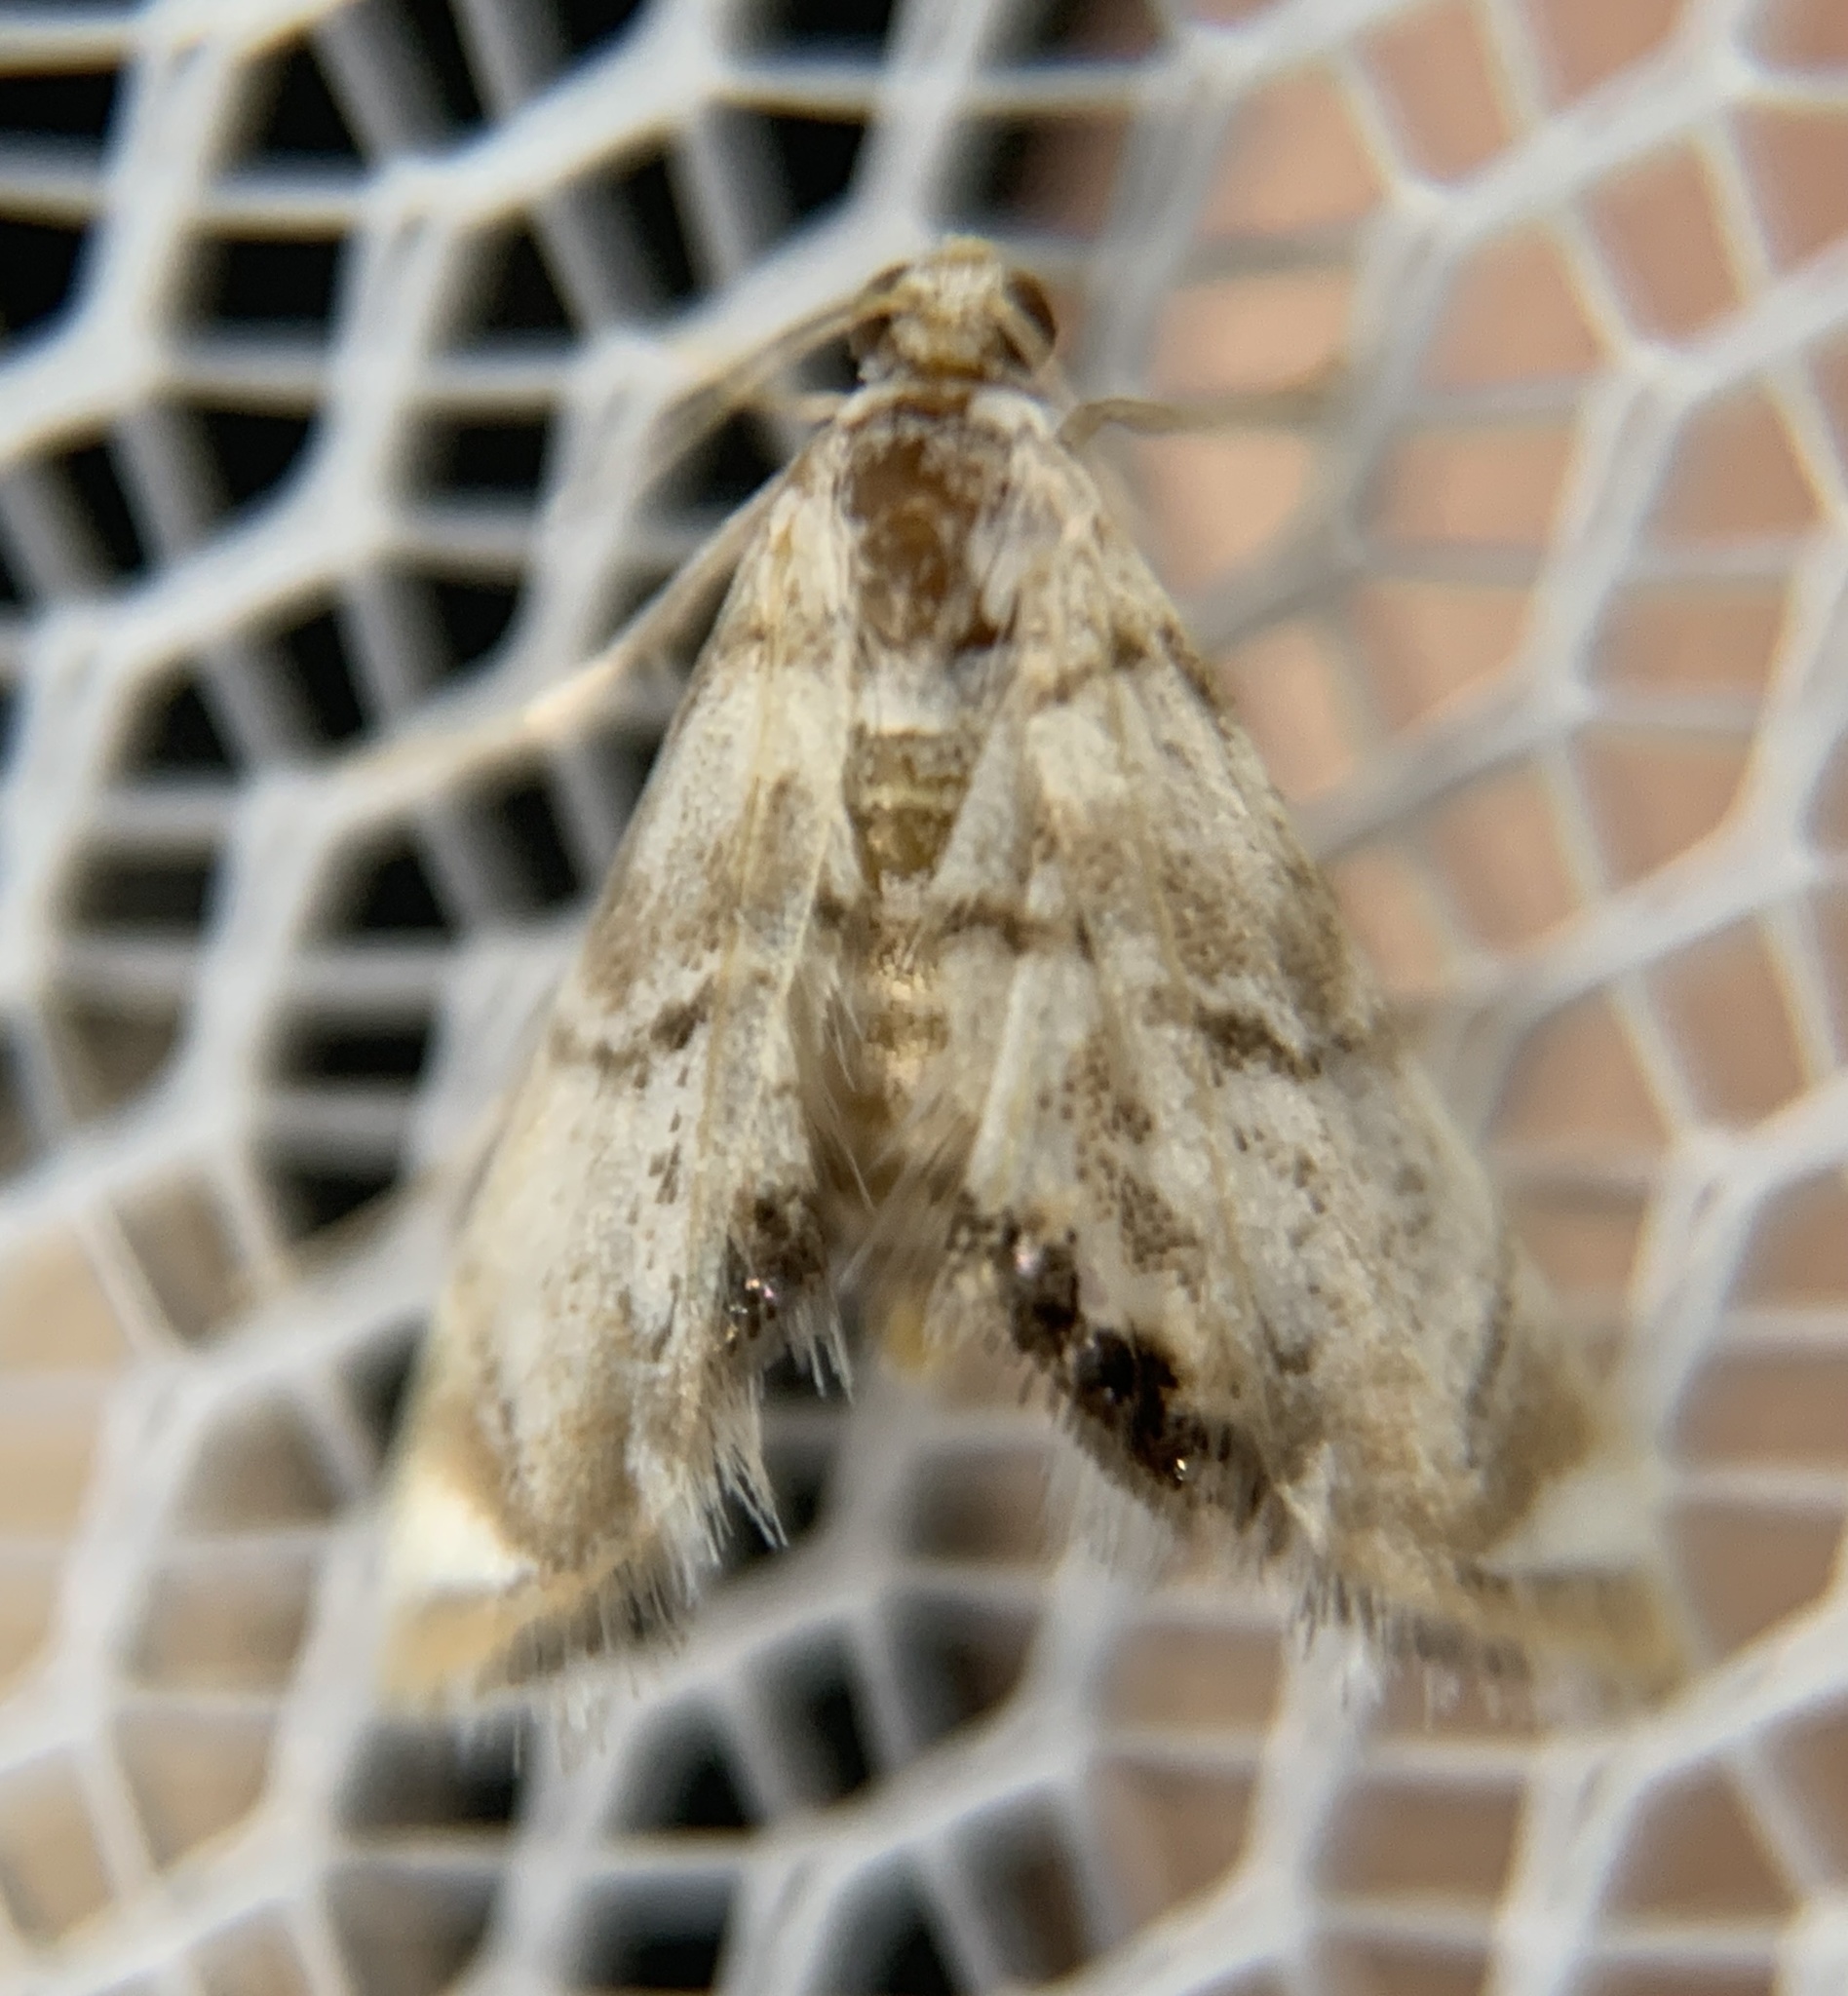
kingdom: Animalia
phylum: Arthropoda
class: Insecta
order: Lepidoptera
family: Crambidae
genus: Eoparargyractis
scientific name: Eoparargyractis irroratalis
